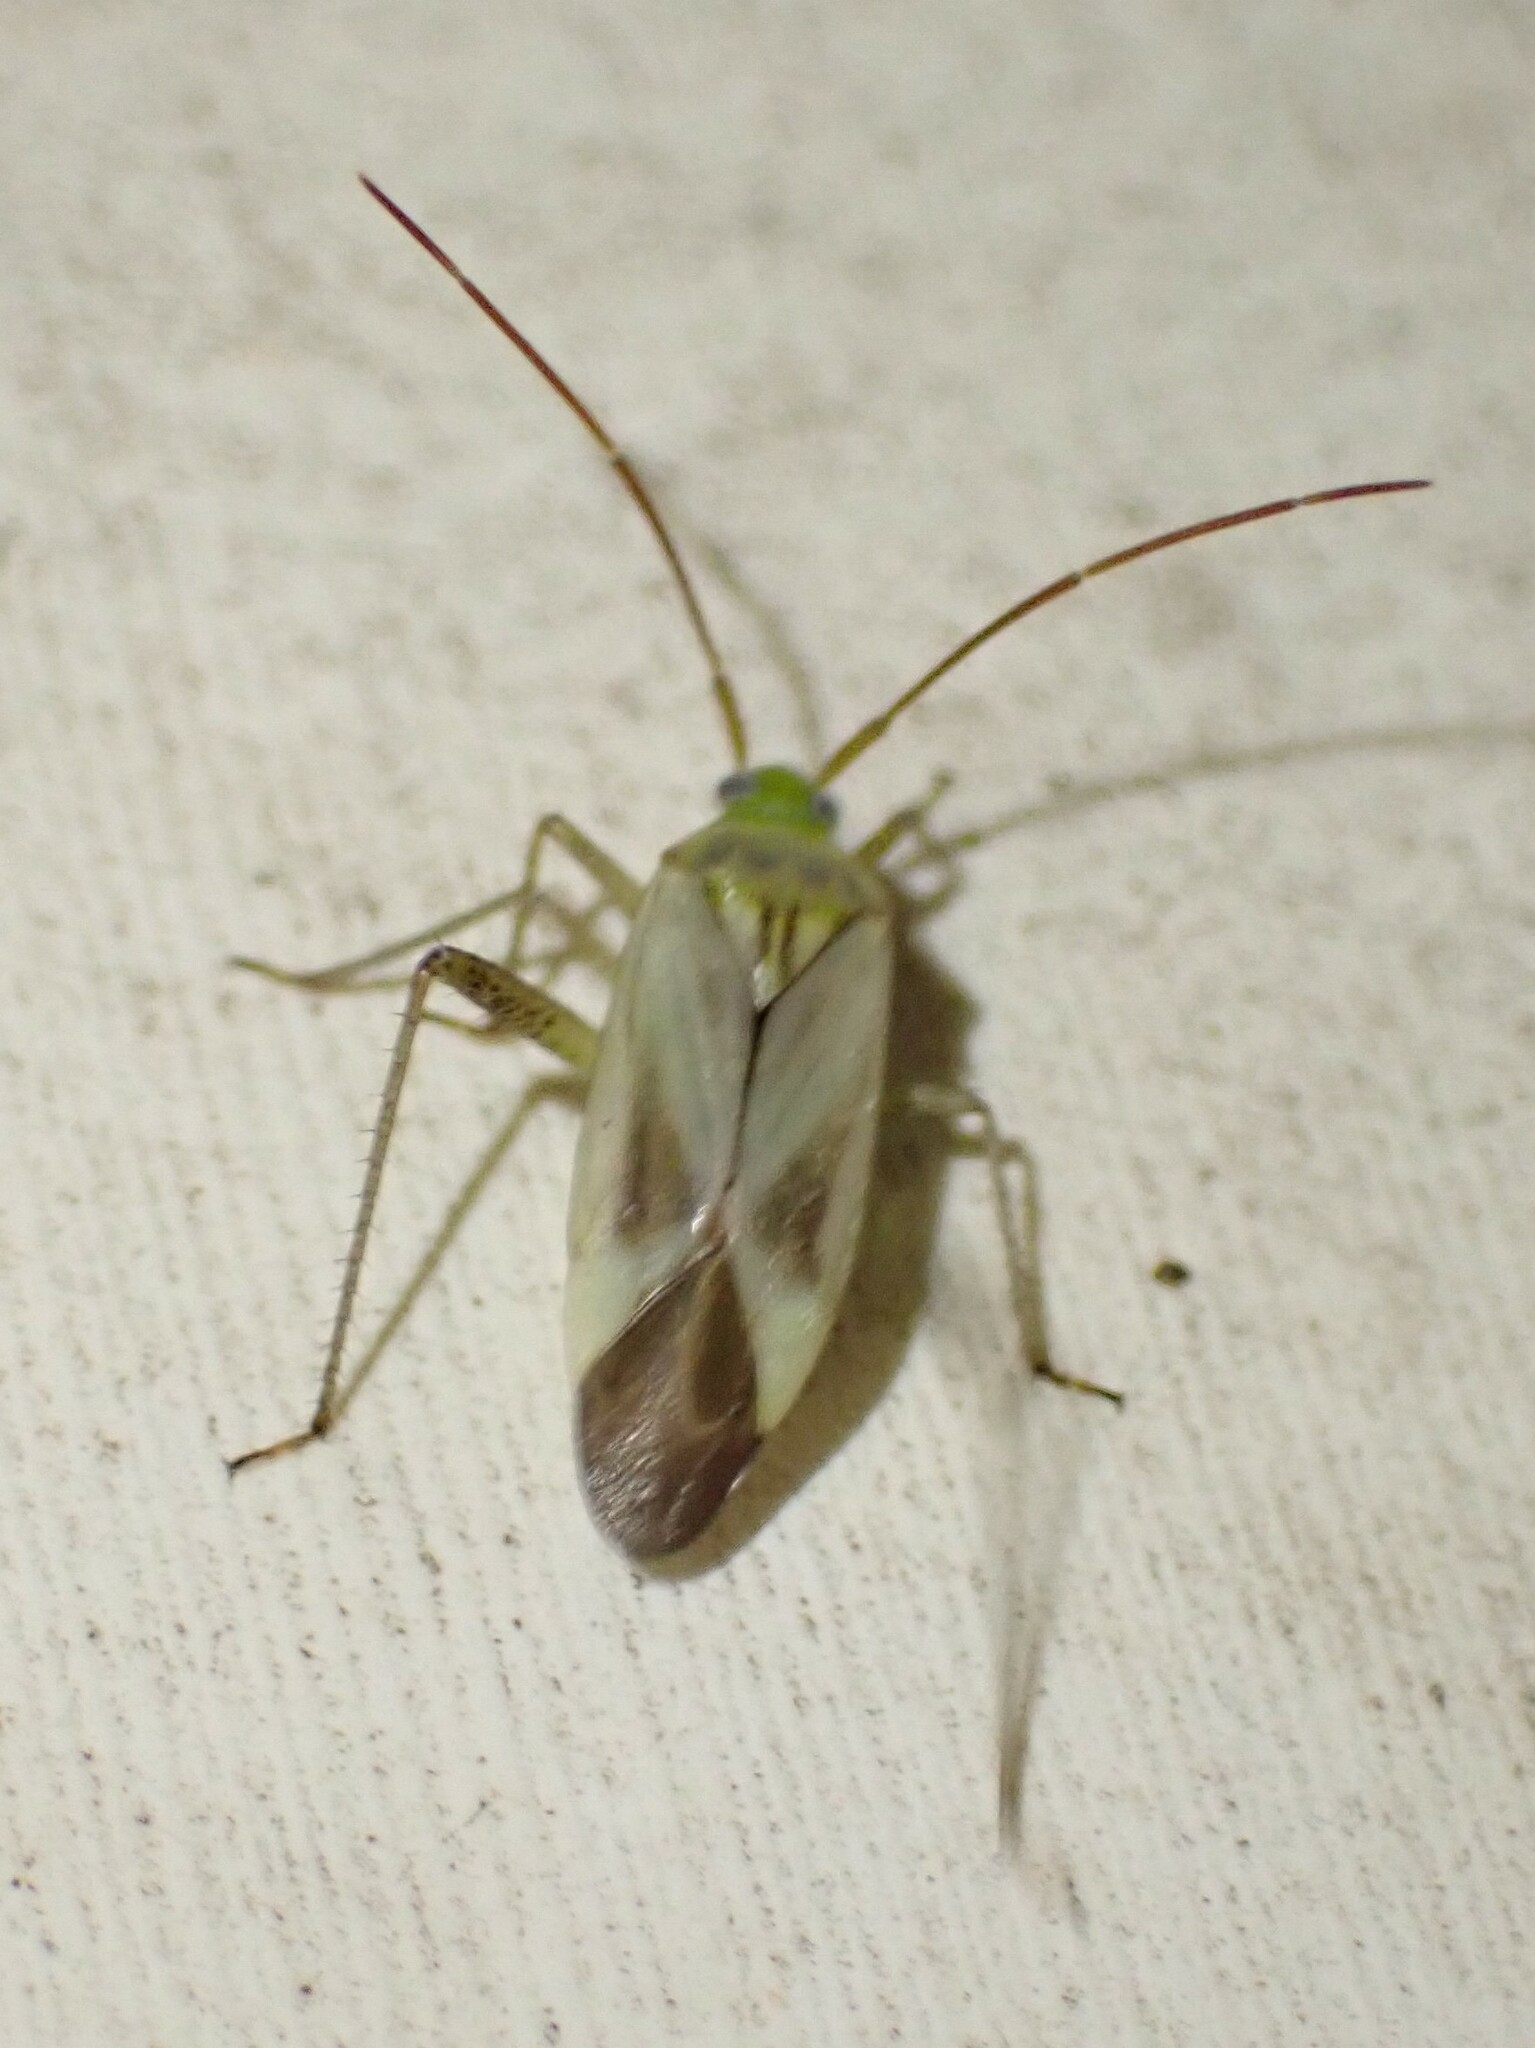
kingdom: Animalia
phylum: Arthropoda
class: Insecta
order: Hemiptera
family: Miridae
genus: Adelphocoris
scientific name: Adelphocoris lineolatus
